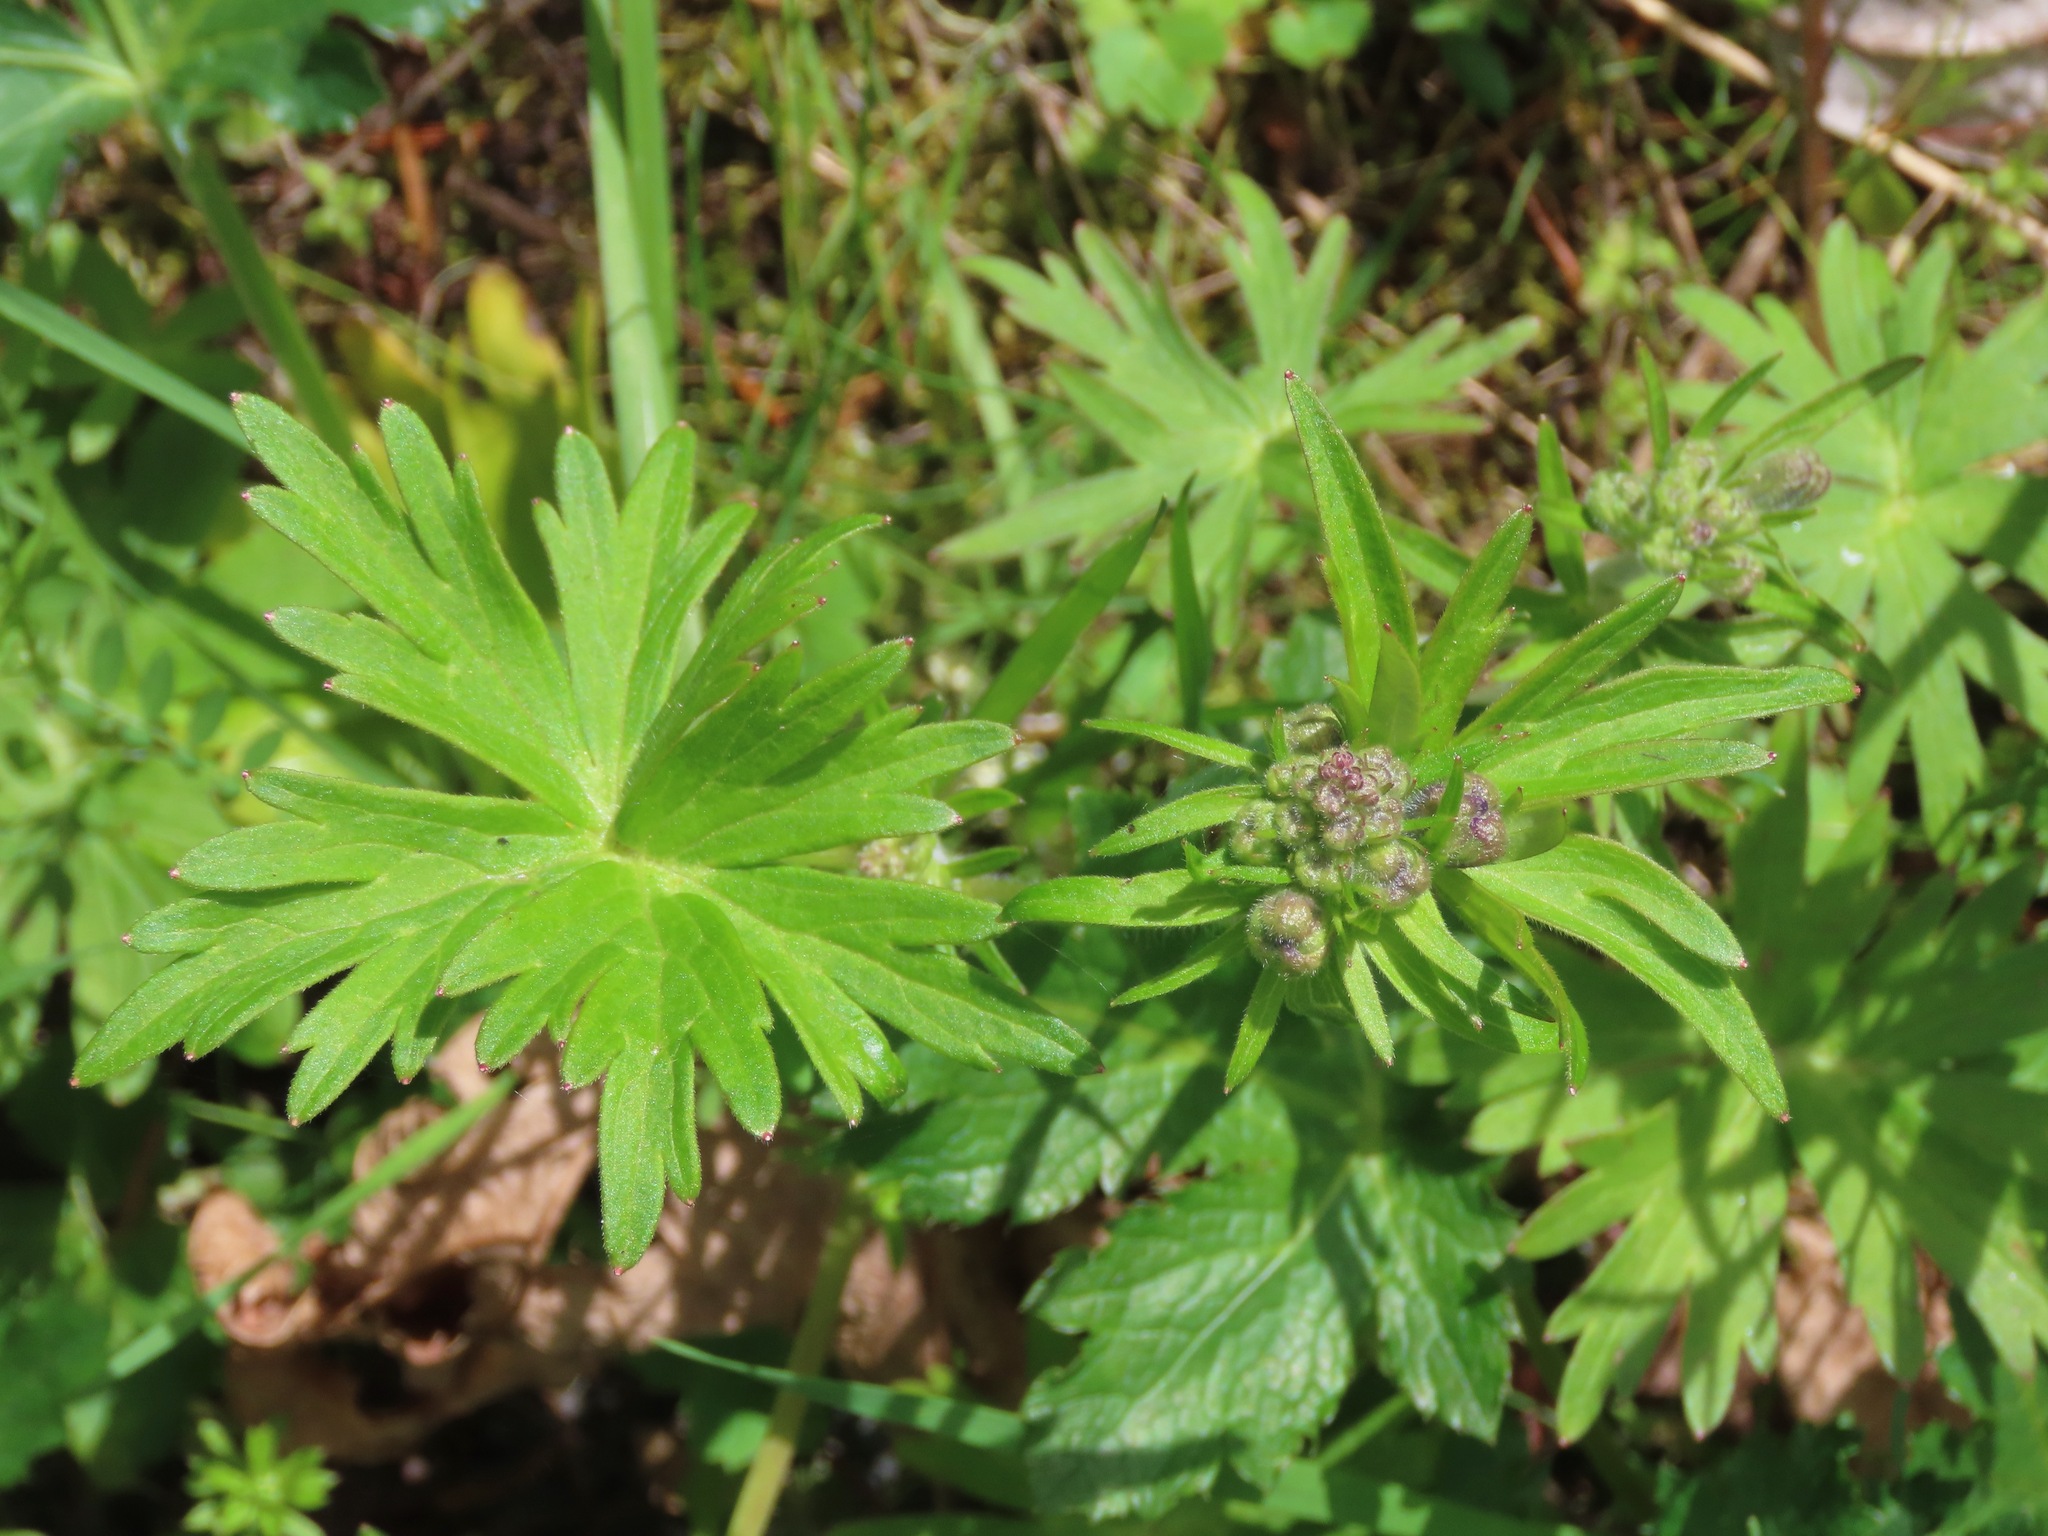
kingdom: Plantae
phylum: Tracheophyta
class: Magnoliopsida
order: Ranunculales
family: Ranunculaceae
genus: Delphinium
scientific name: Delphinium menziesii
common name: Menzies's larkspur
